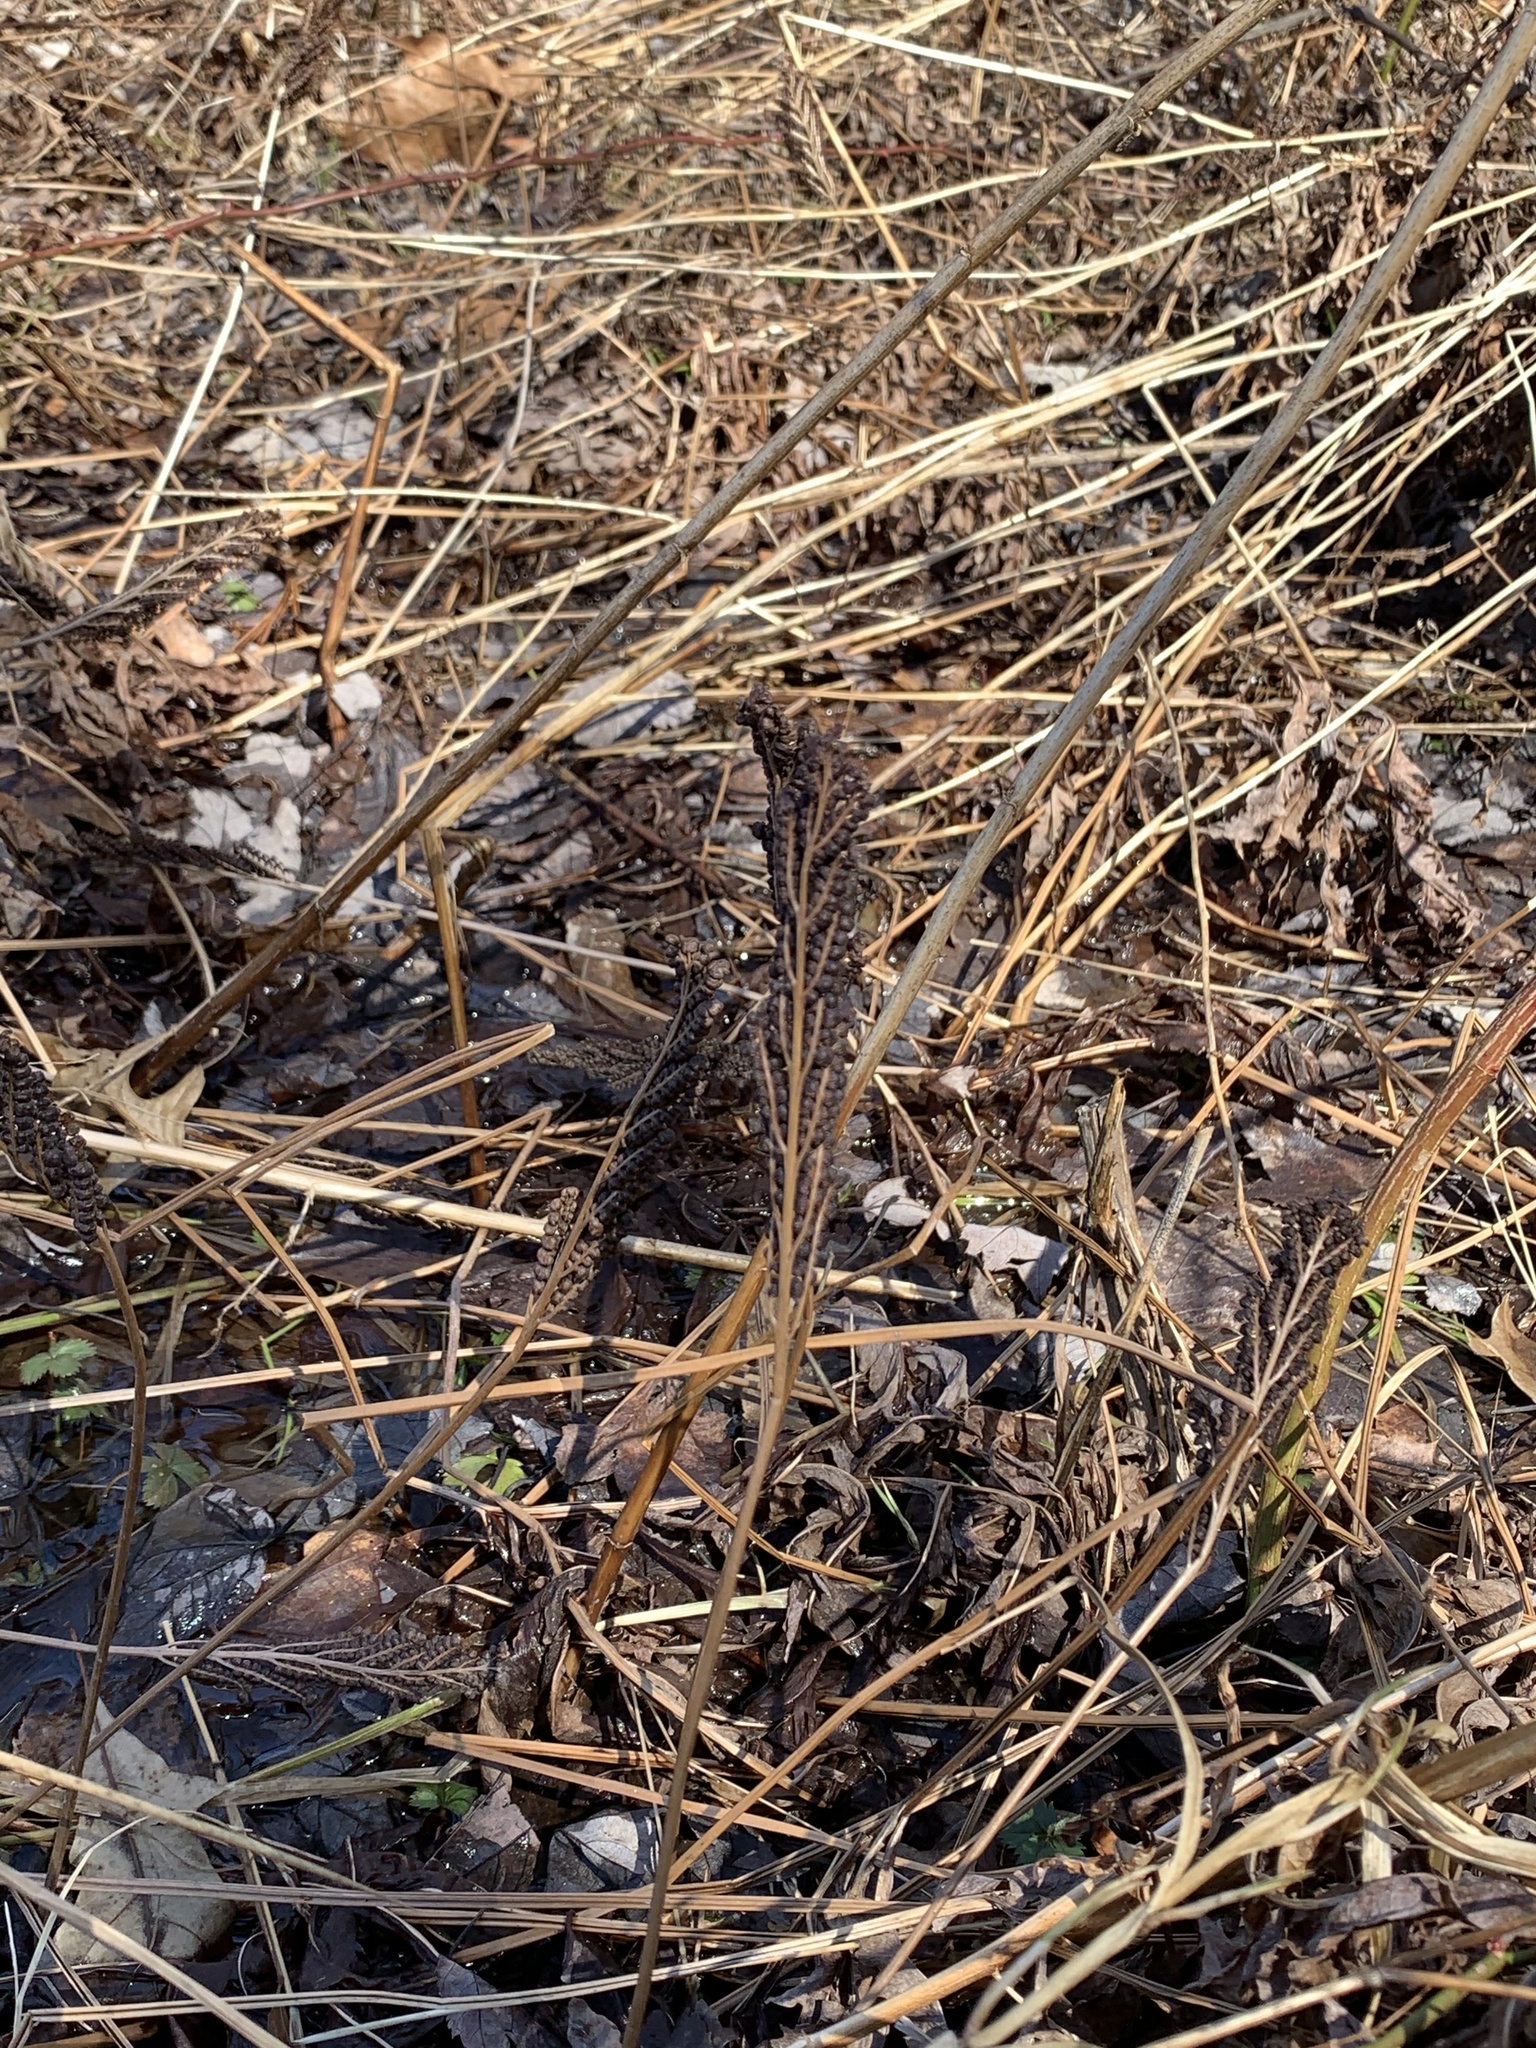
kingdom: Plantae
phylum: Tracheophyta
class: Polypodiopsida
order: Polypodiales
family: Onocleaceae
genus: Onoclea
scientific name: Onoclea sensibilis
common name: Sensitive fern
